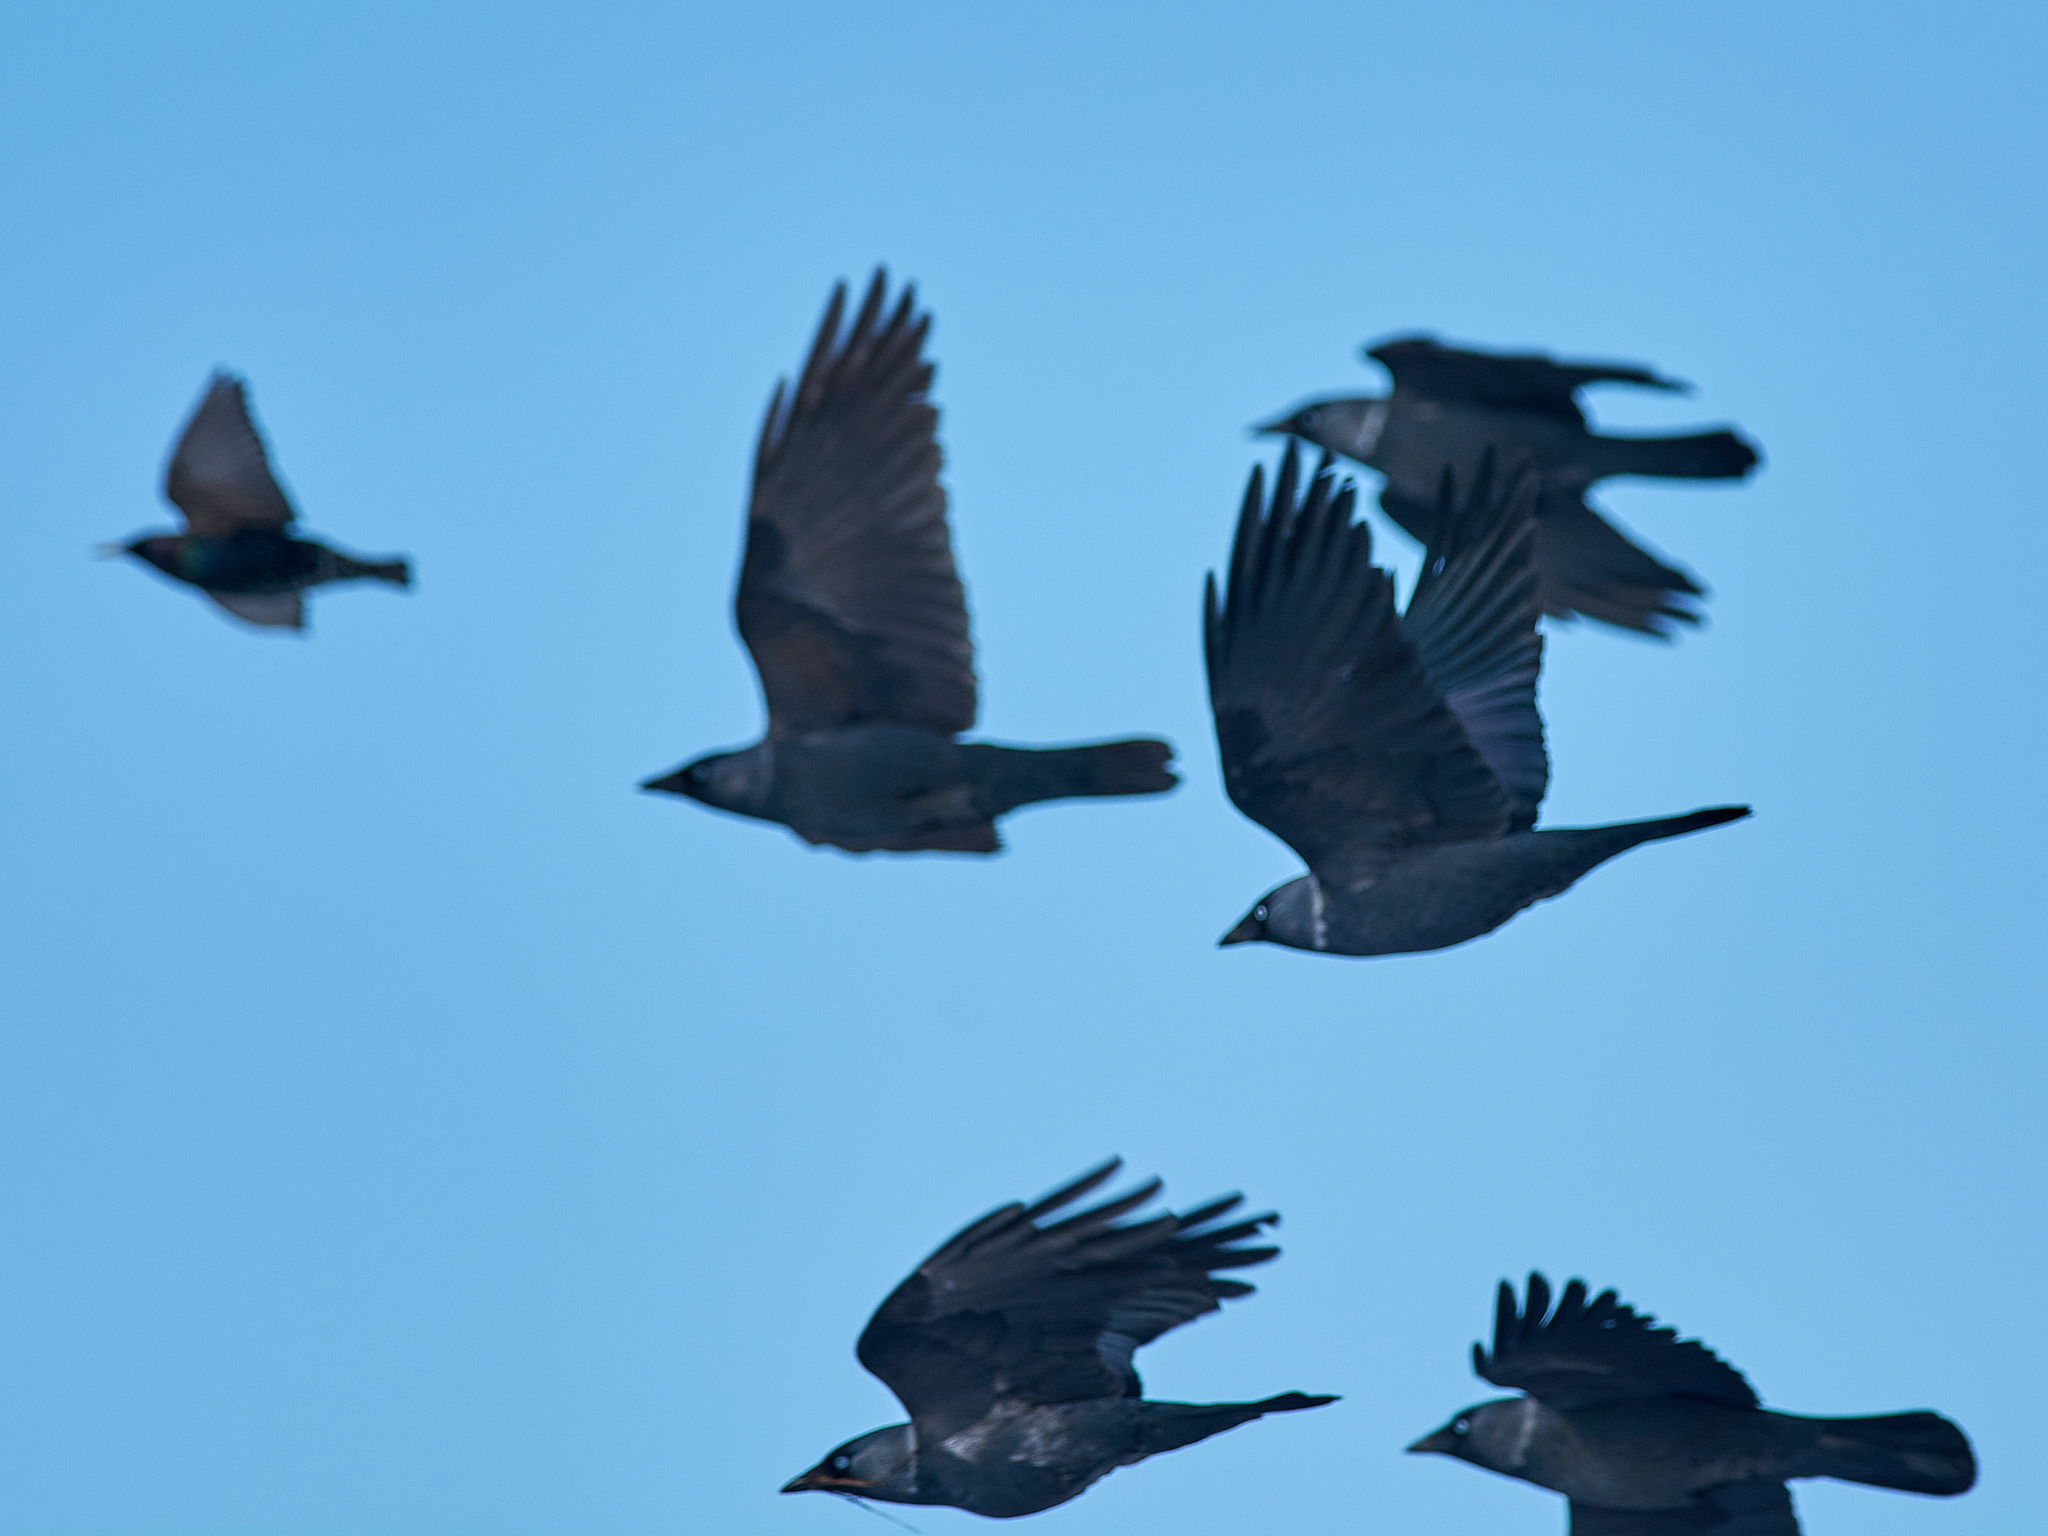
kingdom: Animalia
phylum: Chordata
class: Aves
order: Passeriformes
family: Corvidae
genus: Coloeus
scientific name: Coloeus monedula
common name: Western jackdaw
